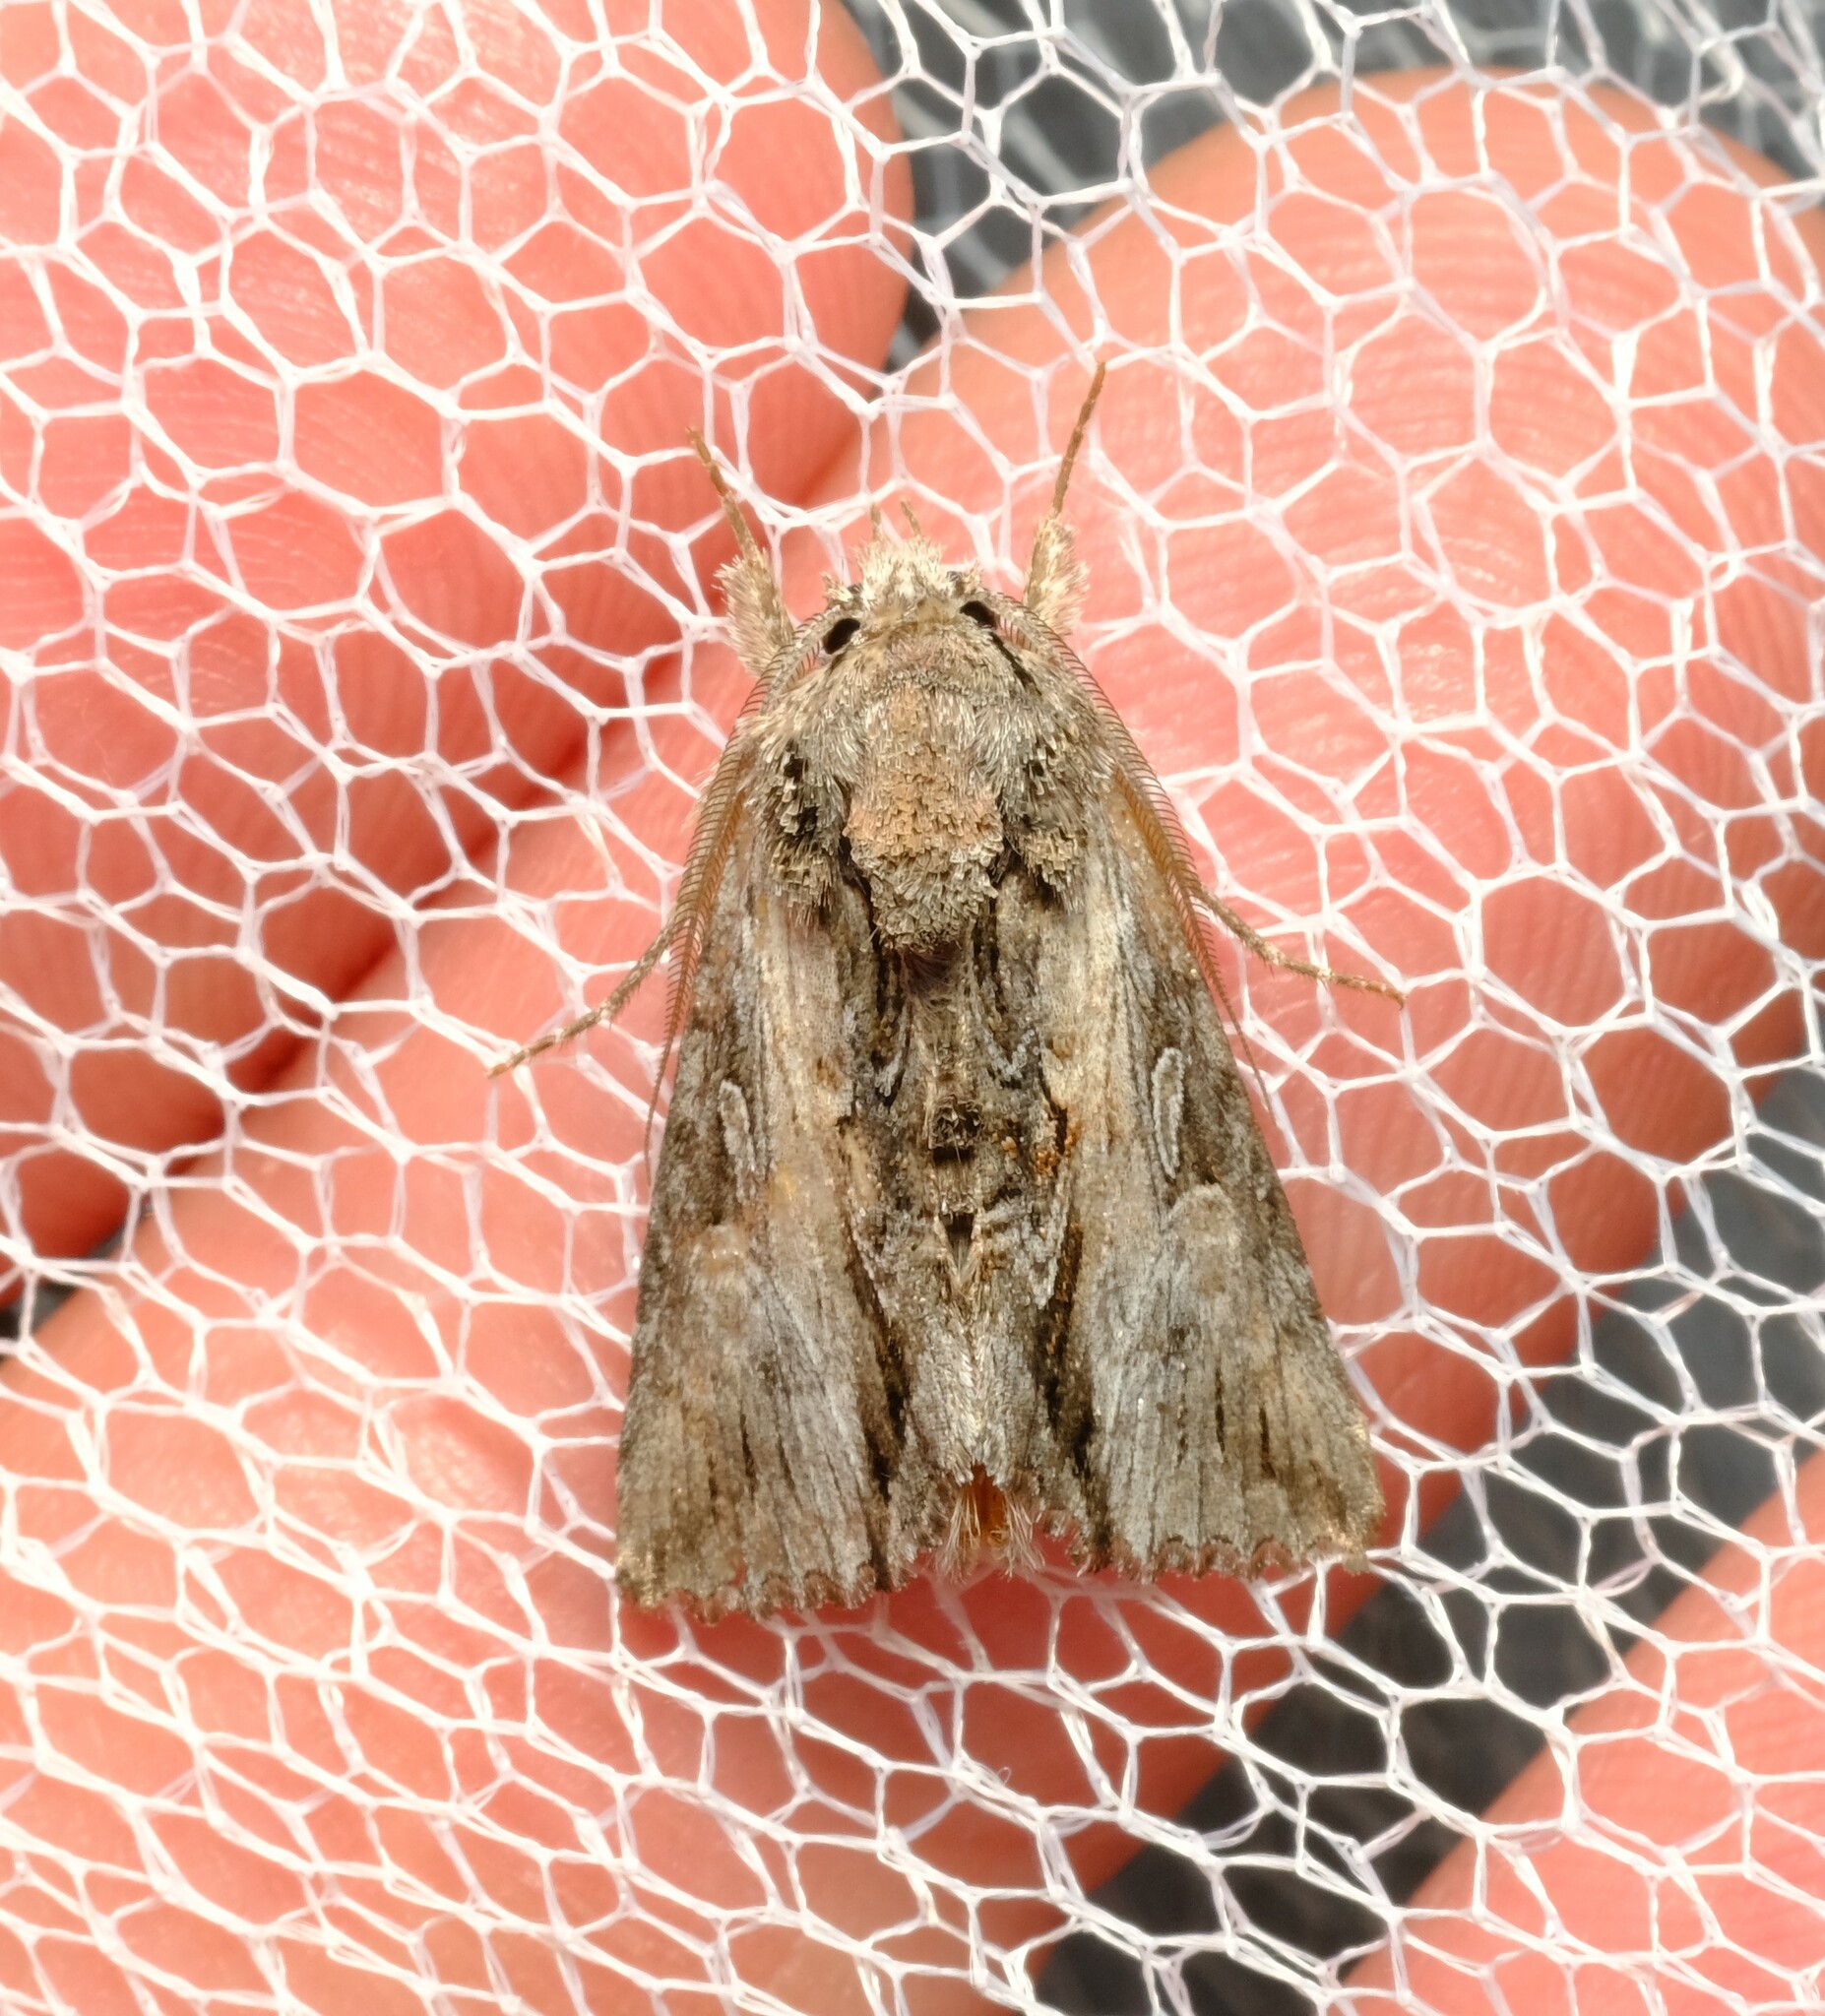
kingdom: Animalia
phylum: Arthropoda
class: Insecta
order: Lepidoptera
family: Noctuidae
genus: Buciara
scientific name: Buciara bipartita
